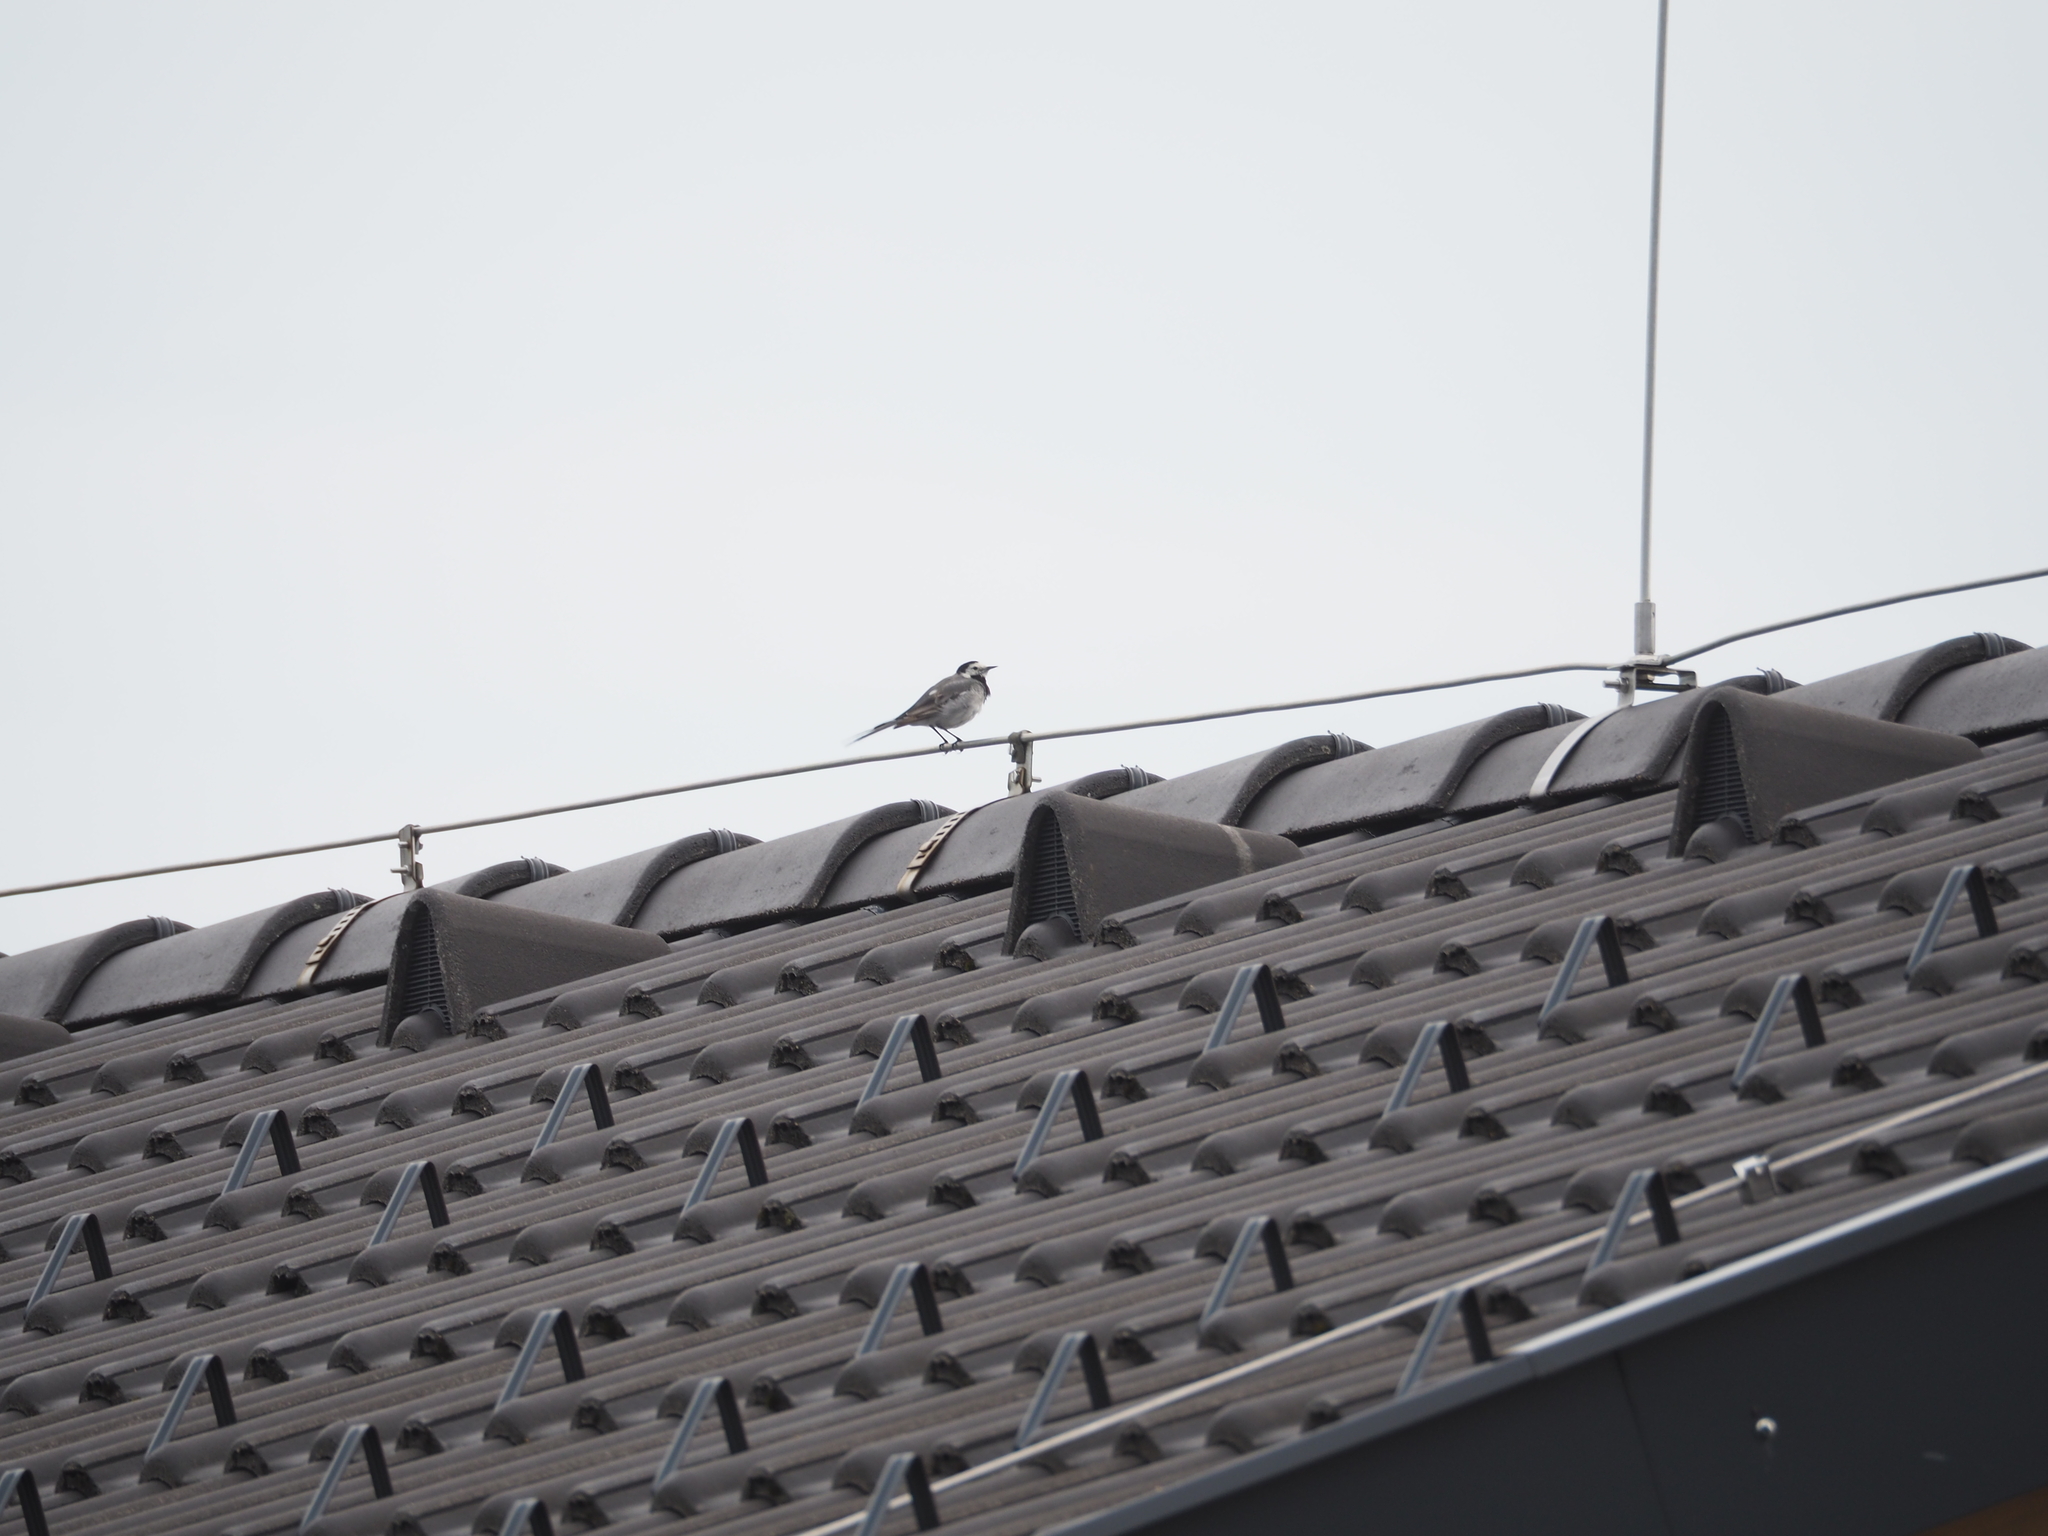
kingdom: Animalia
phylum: Chordata
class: Aves
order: Passeriformes
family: Motacillidae
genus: Motacilla
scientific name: Motacilla alba
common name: White wagtail
